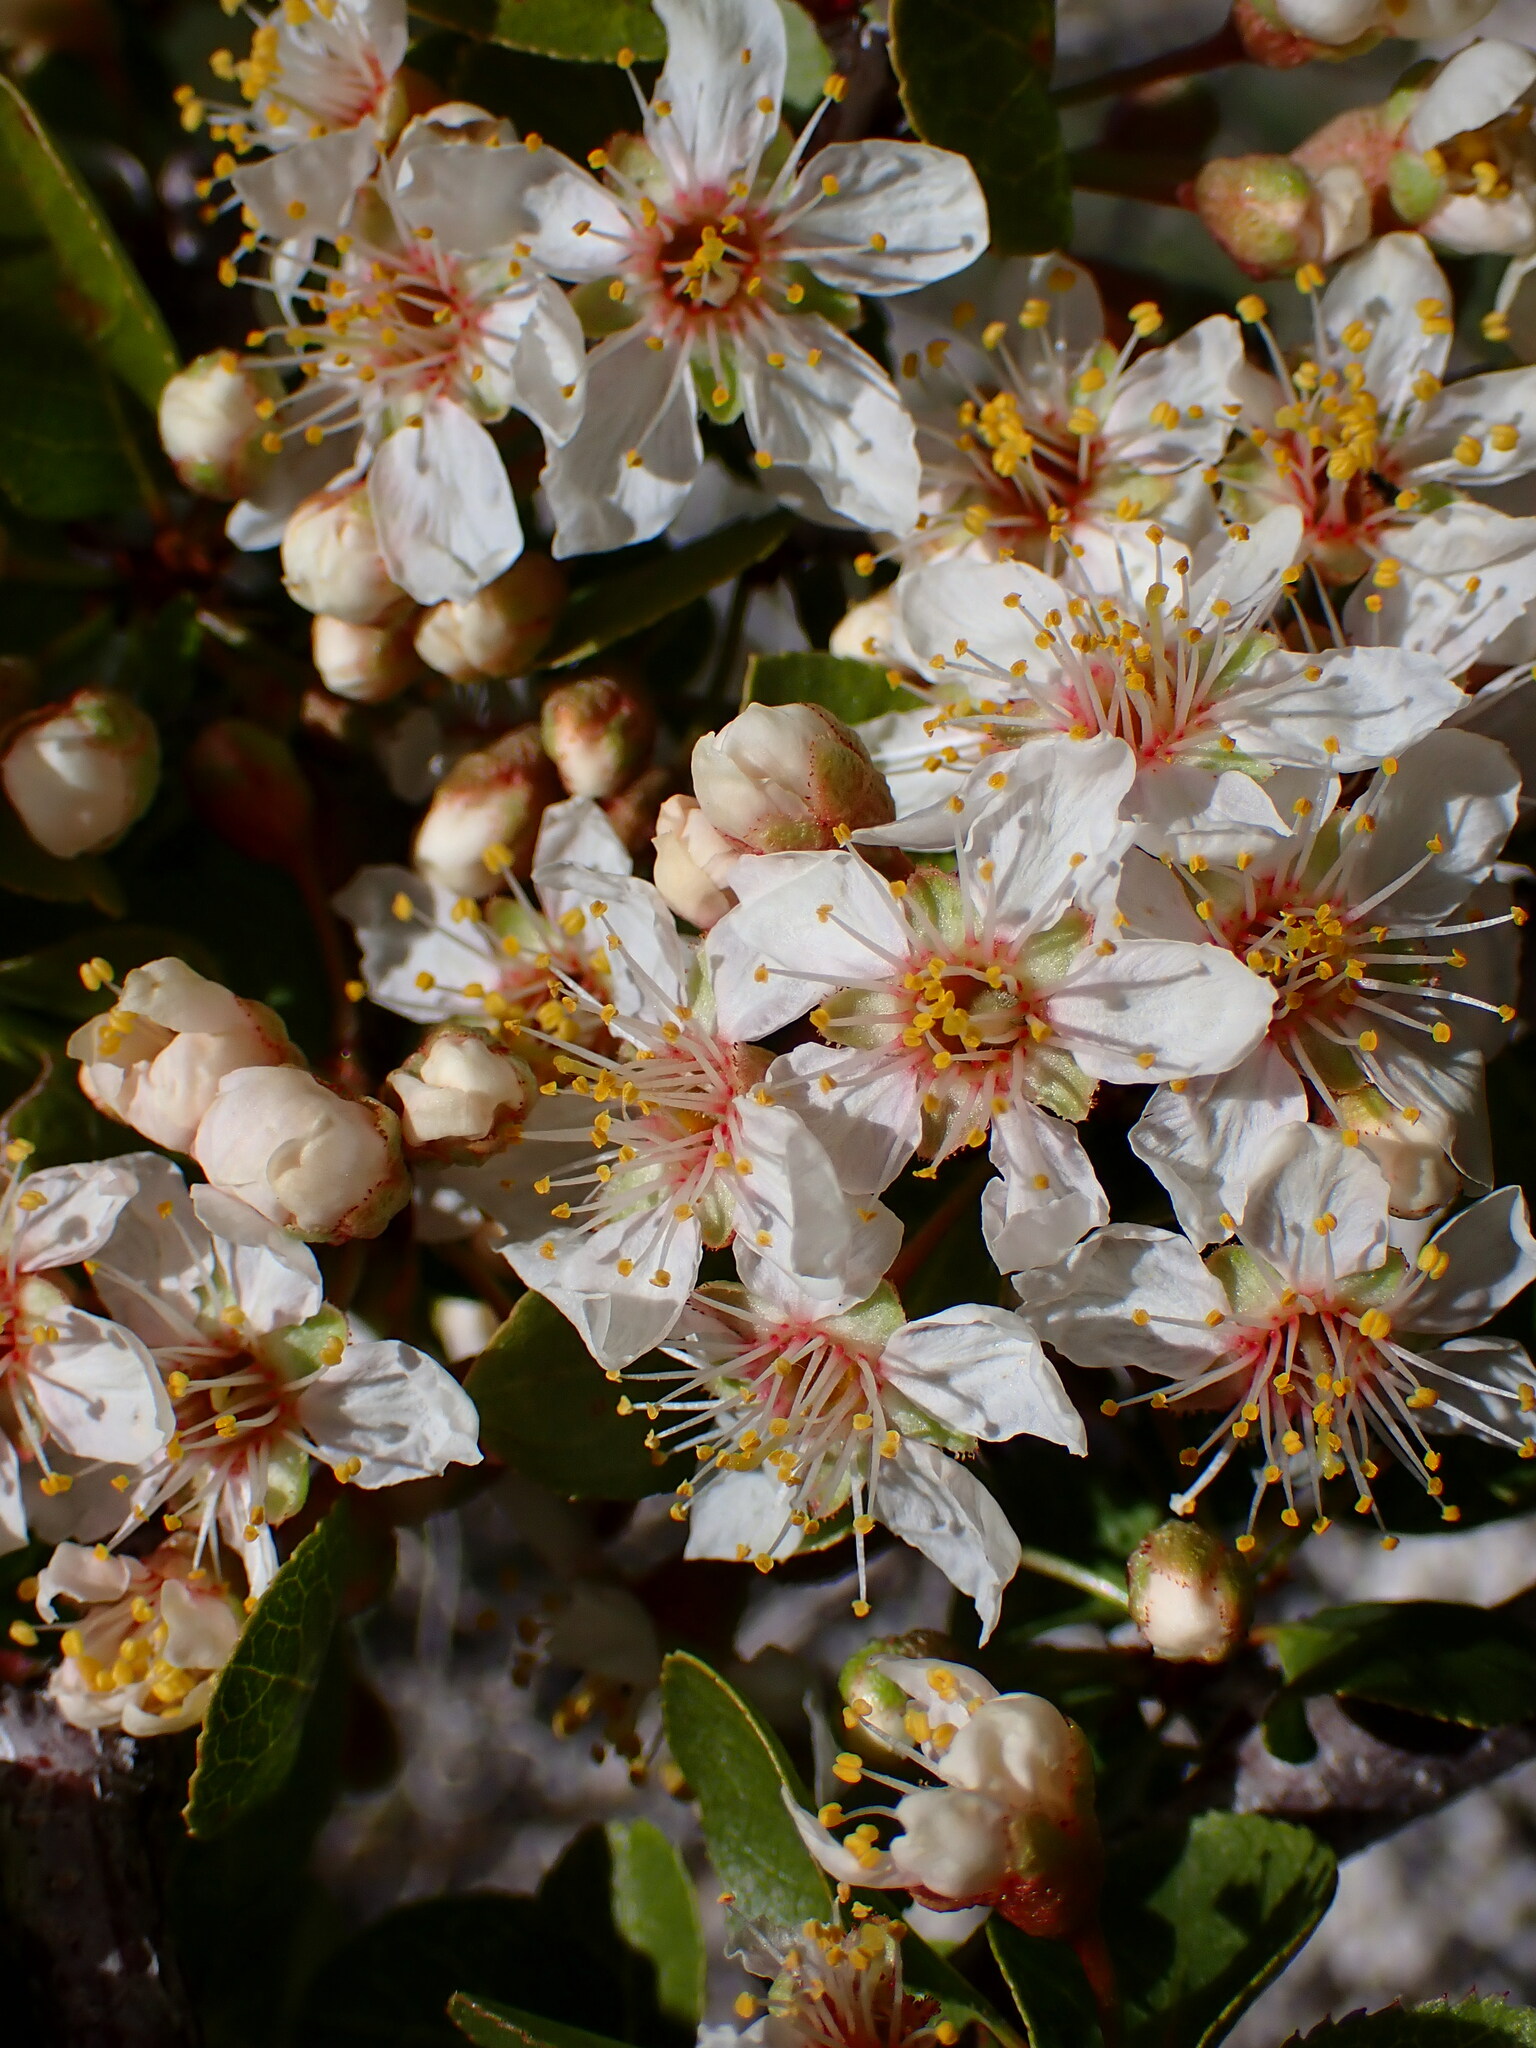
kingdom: Plantae
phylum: Tracheophyta
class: Magnoliopsida
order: Rosales
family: Rosaceae
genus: Prunus
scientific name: Prunus fremontii
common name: Desert apricot
